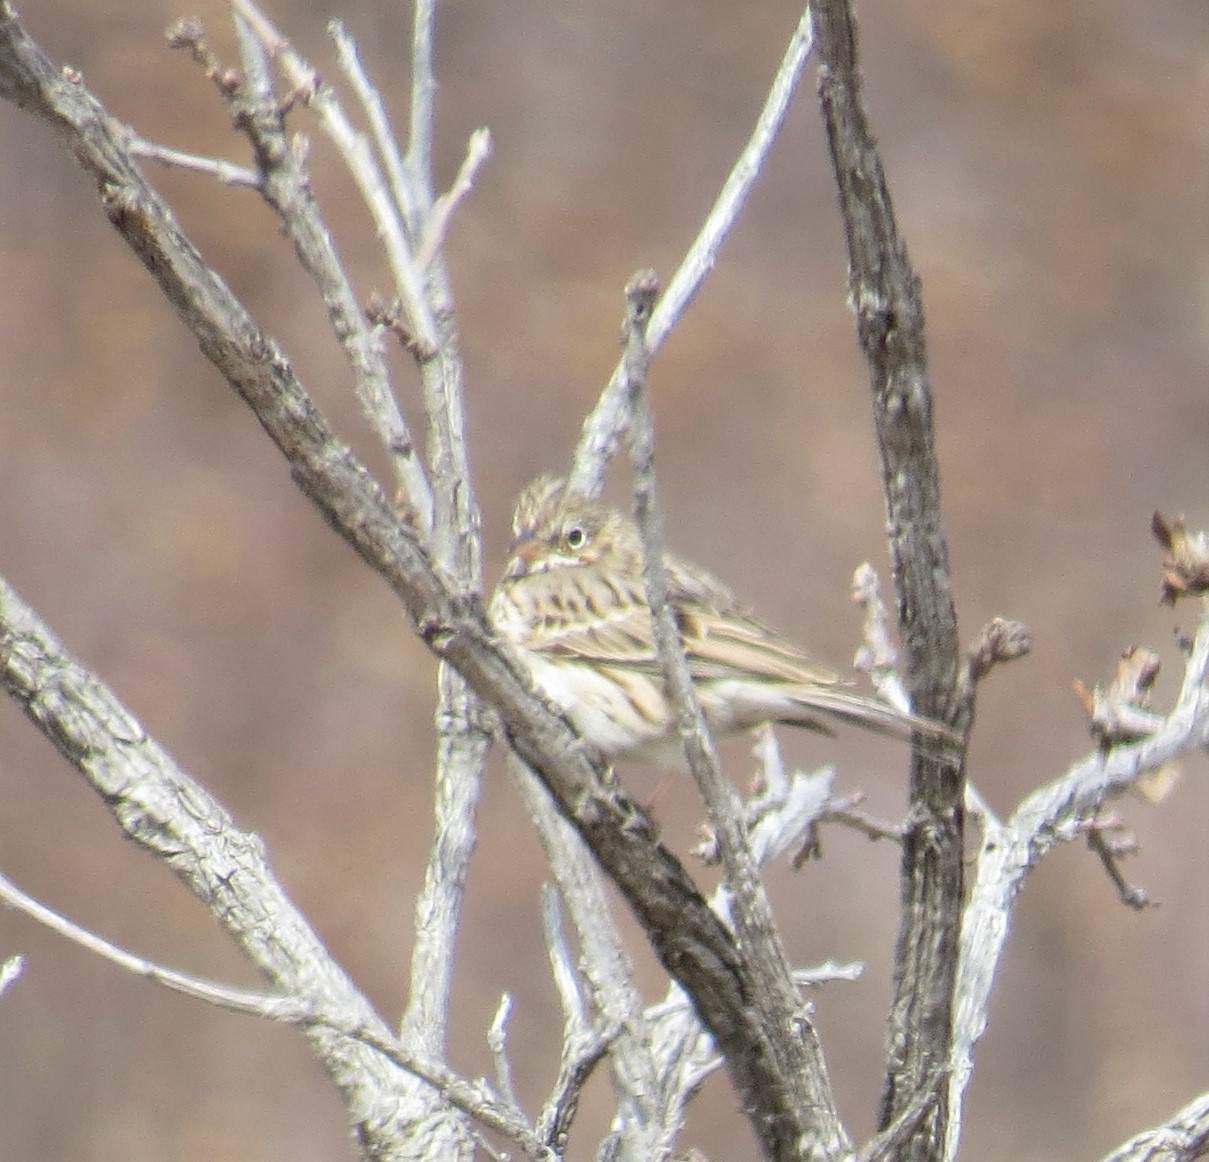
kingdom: Animalia
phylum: Chordata
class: Aves
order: Passeriformes
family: Passerellidae
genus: Pooecetes
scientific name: Pooecetes gramineus
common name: Vesper sparrow
